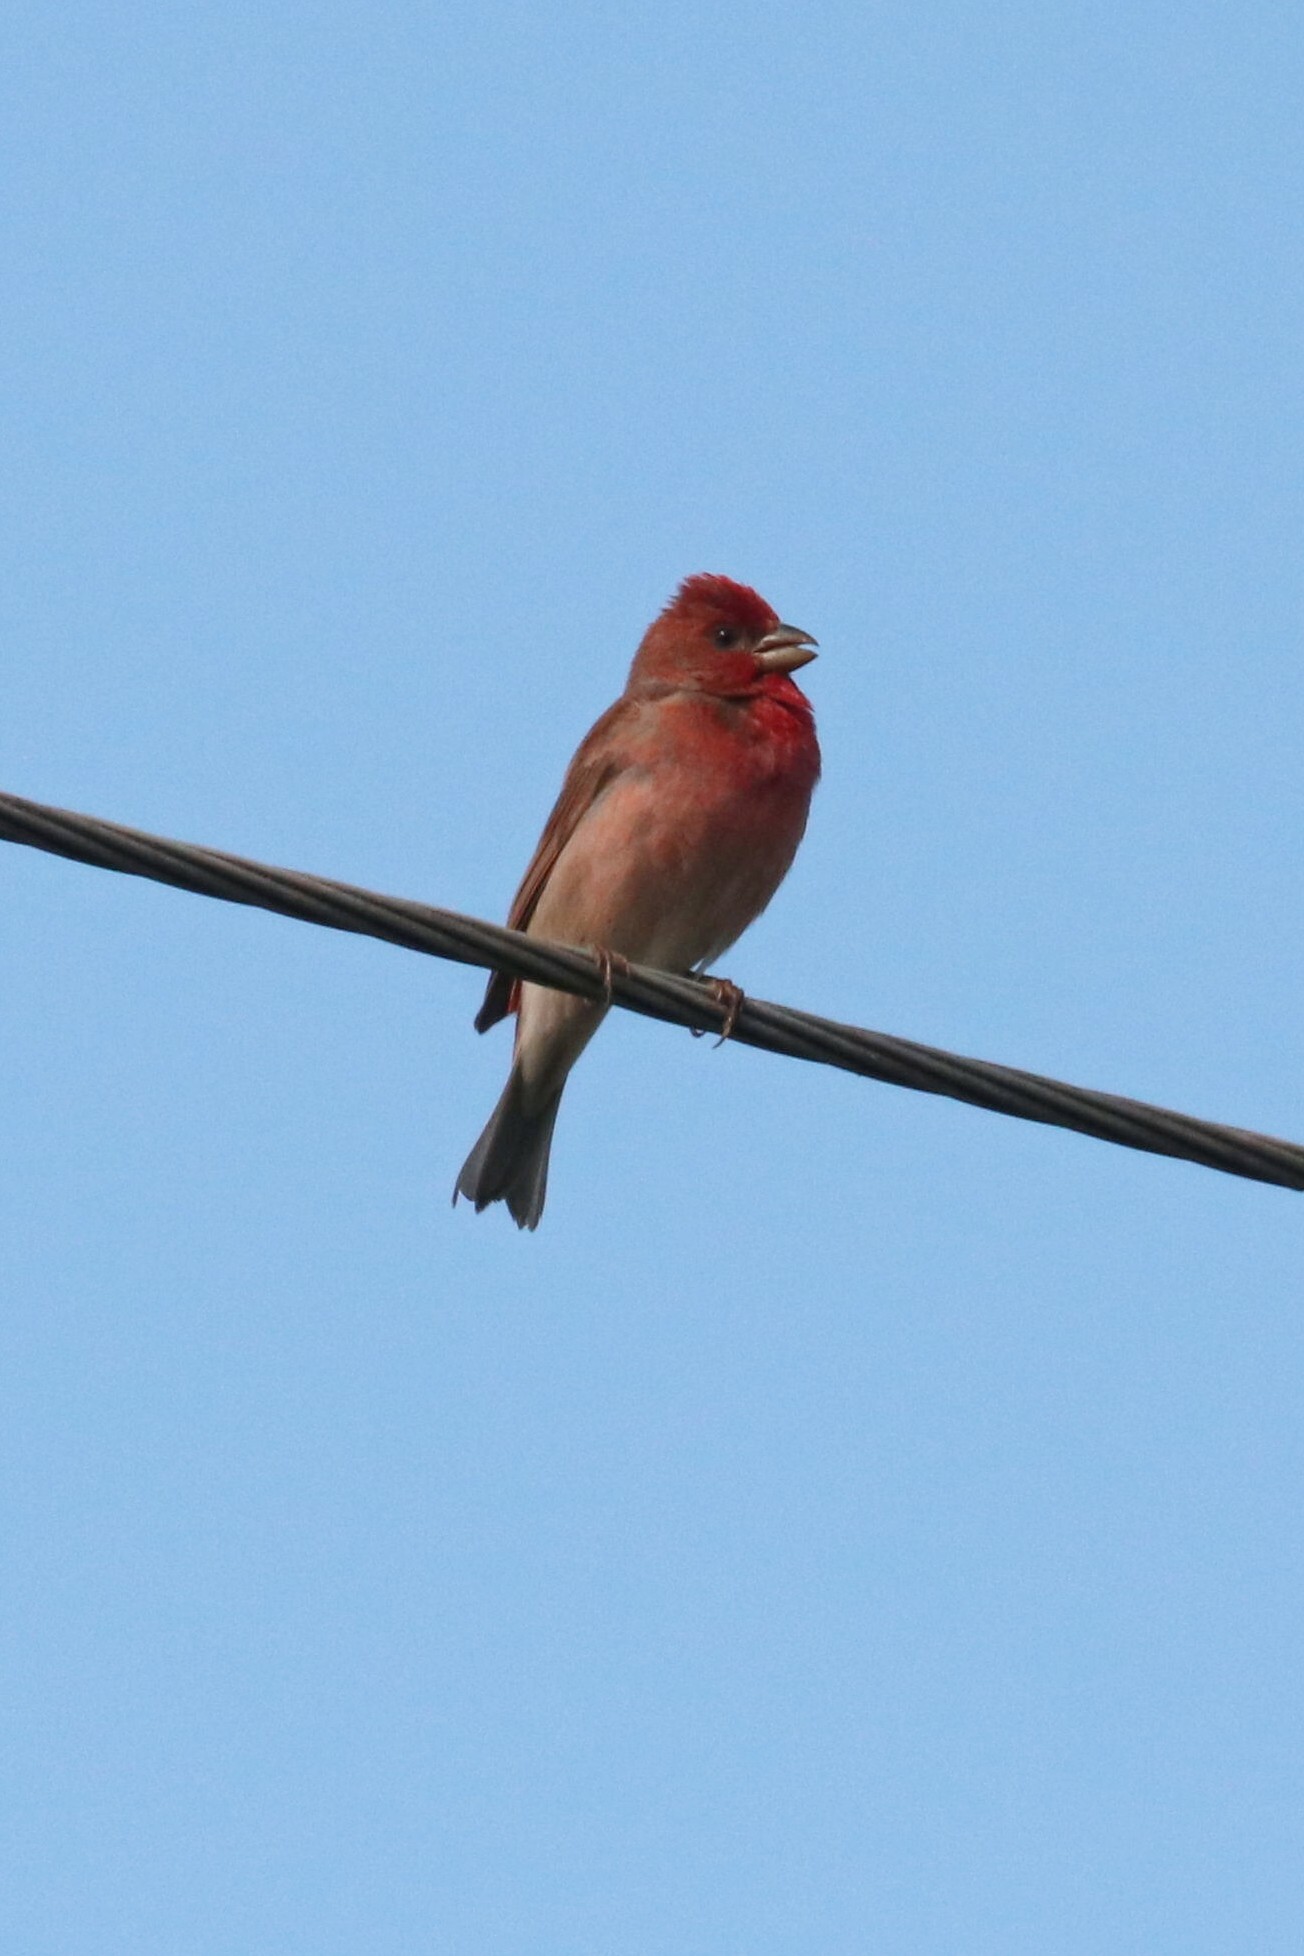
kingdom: Animalia
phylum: Chordata
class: Aves
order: Passeriformes
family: Fringillidae
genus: Carpodacus
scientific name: Carpodacus erythrinus
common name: Common rosefinch
